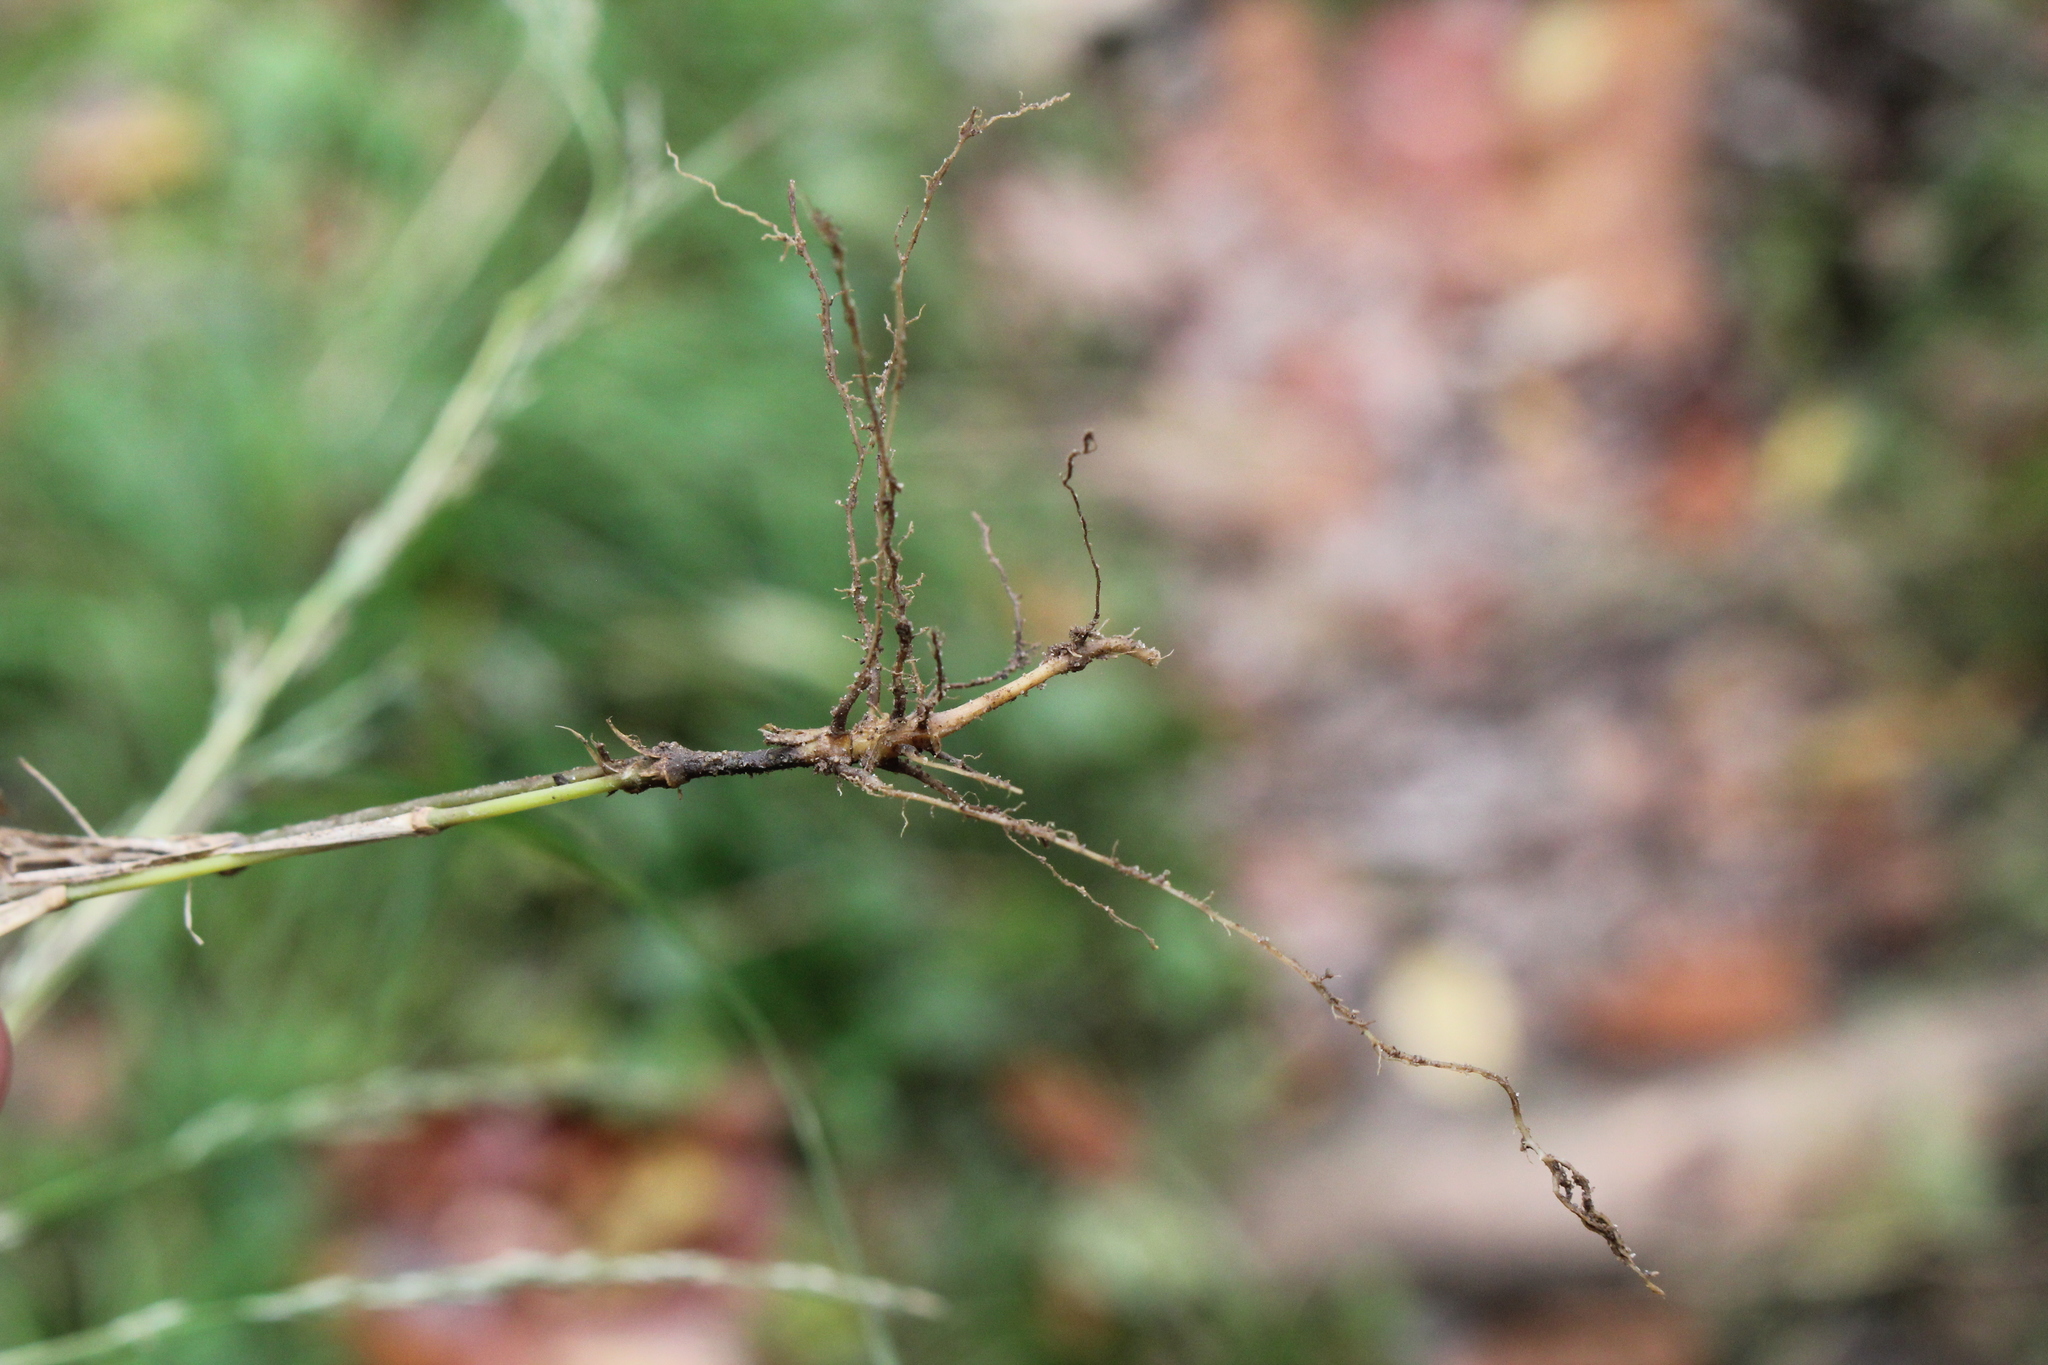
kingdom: Plantae
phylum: Tracheophyta
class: Liliopsida
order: Poales
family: Poaceae
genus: Muhlenbergia
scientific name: Muhlenbergia schreberi
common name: Nimblewill
